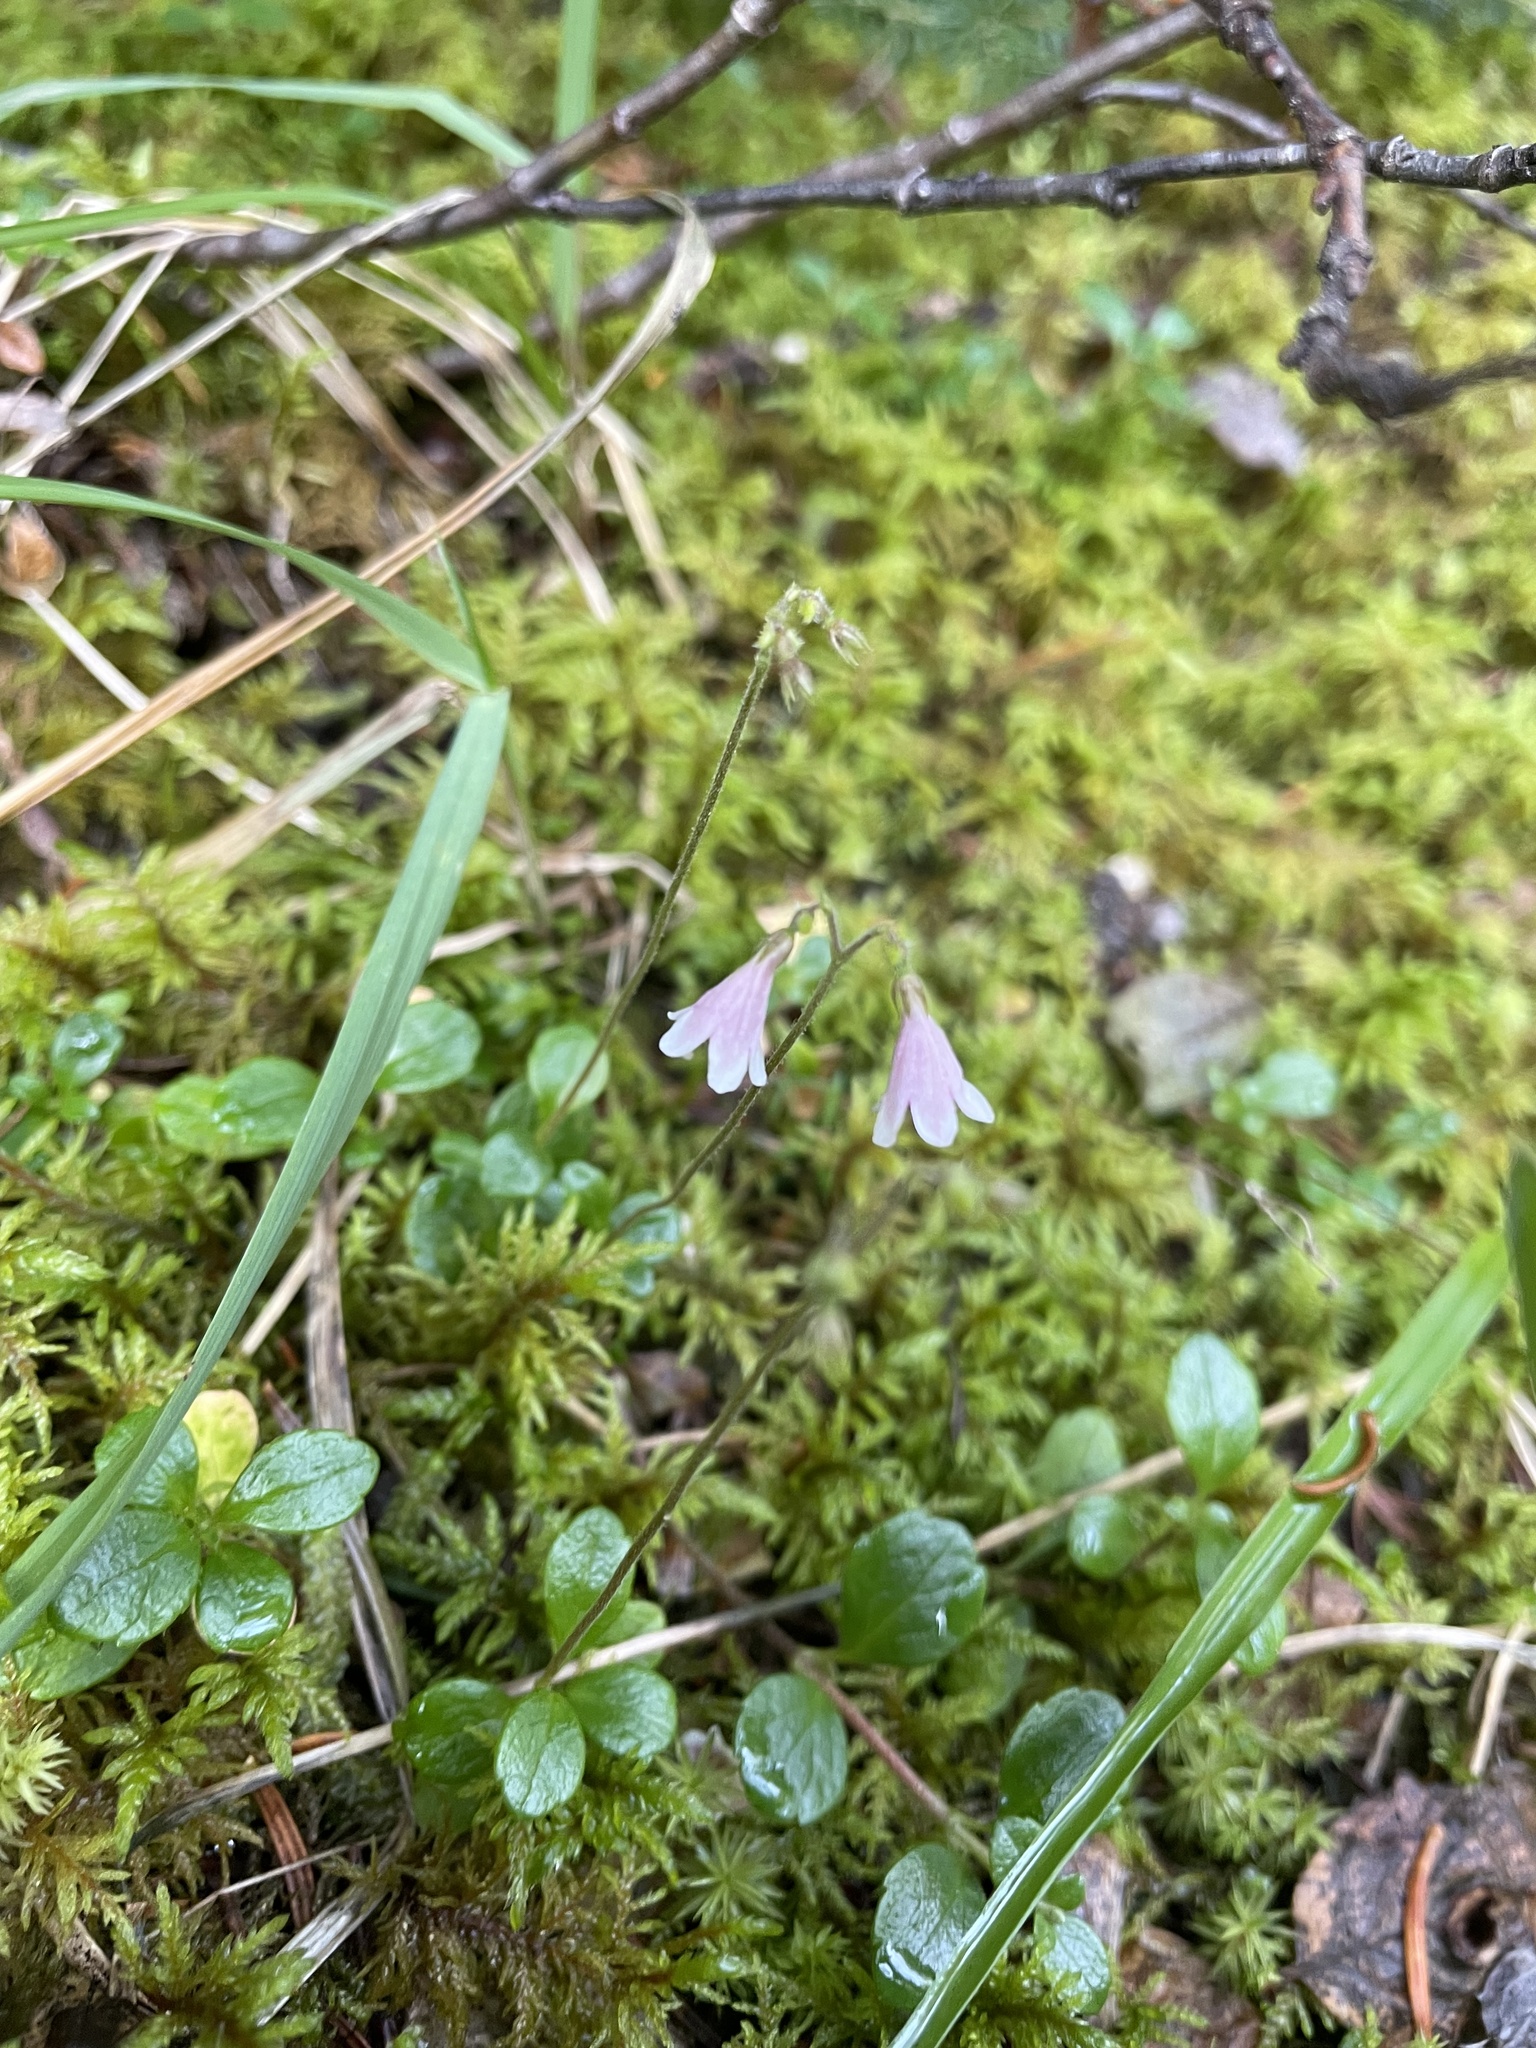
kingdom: Plantae
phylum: Tracheophyta
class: Magnoliopsida
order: Dipsacales
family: Caprifoliaceae
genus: Linnaea
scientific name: Linnaea borealis
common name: Twinflower
